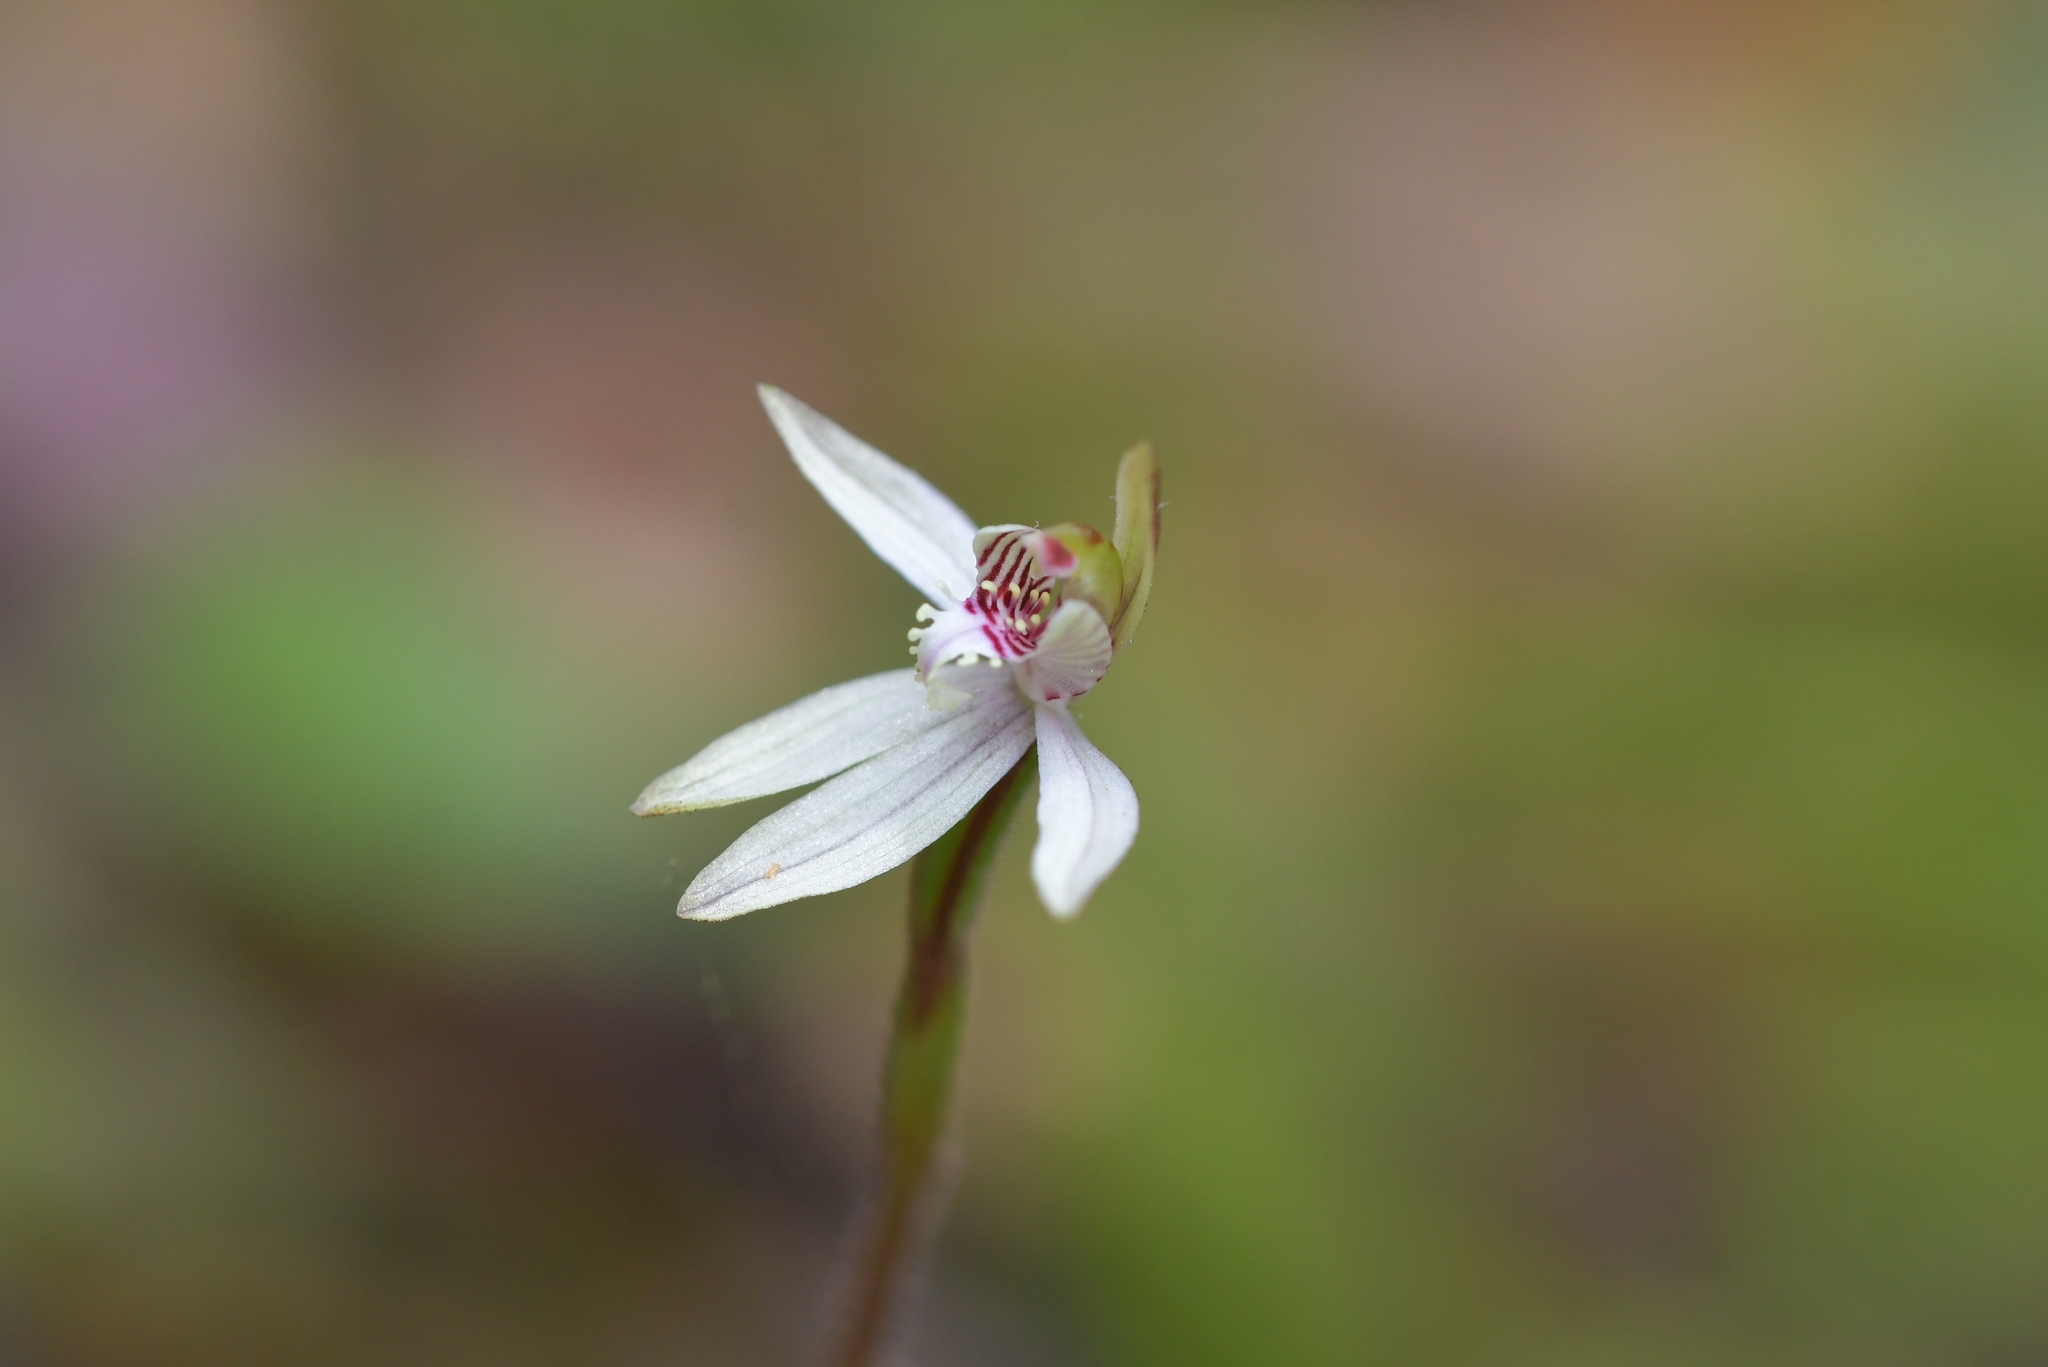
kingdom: Plantae
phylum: Tracheophyta
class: Liliopsida
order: Asparagales
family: Orchidaceae
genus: Caladenia
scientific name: Caladenia chlorostyla
